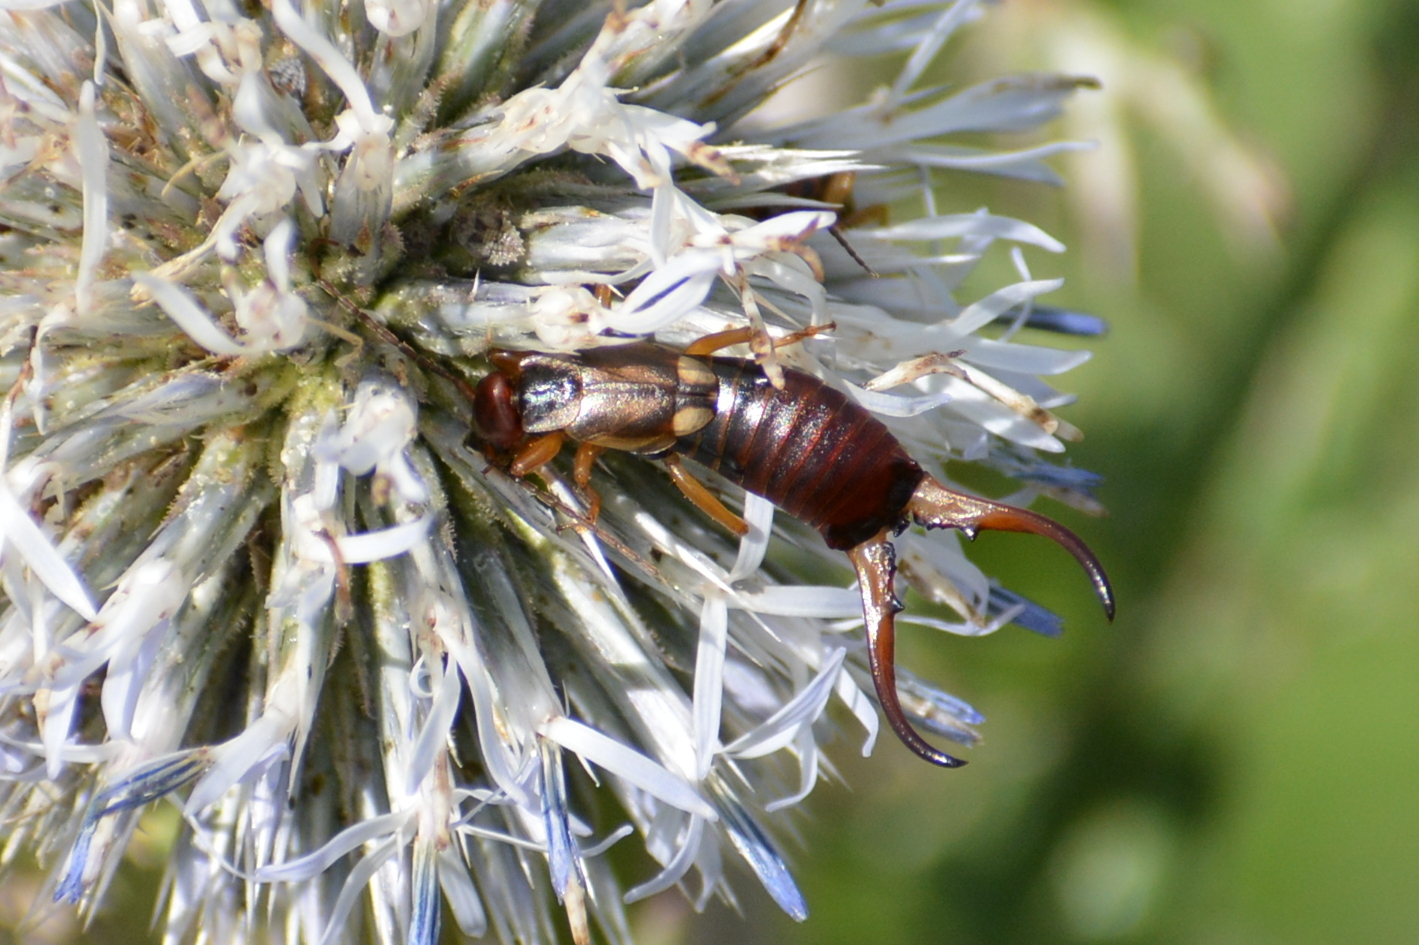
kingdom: Animalia
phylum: Arthropoda
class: Insecta
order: Dermaptera
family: Forficulidae
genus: Forficula
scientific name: Forficula
